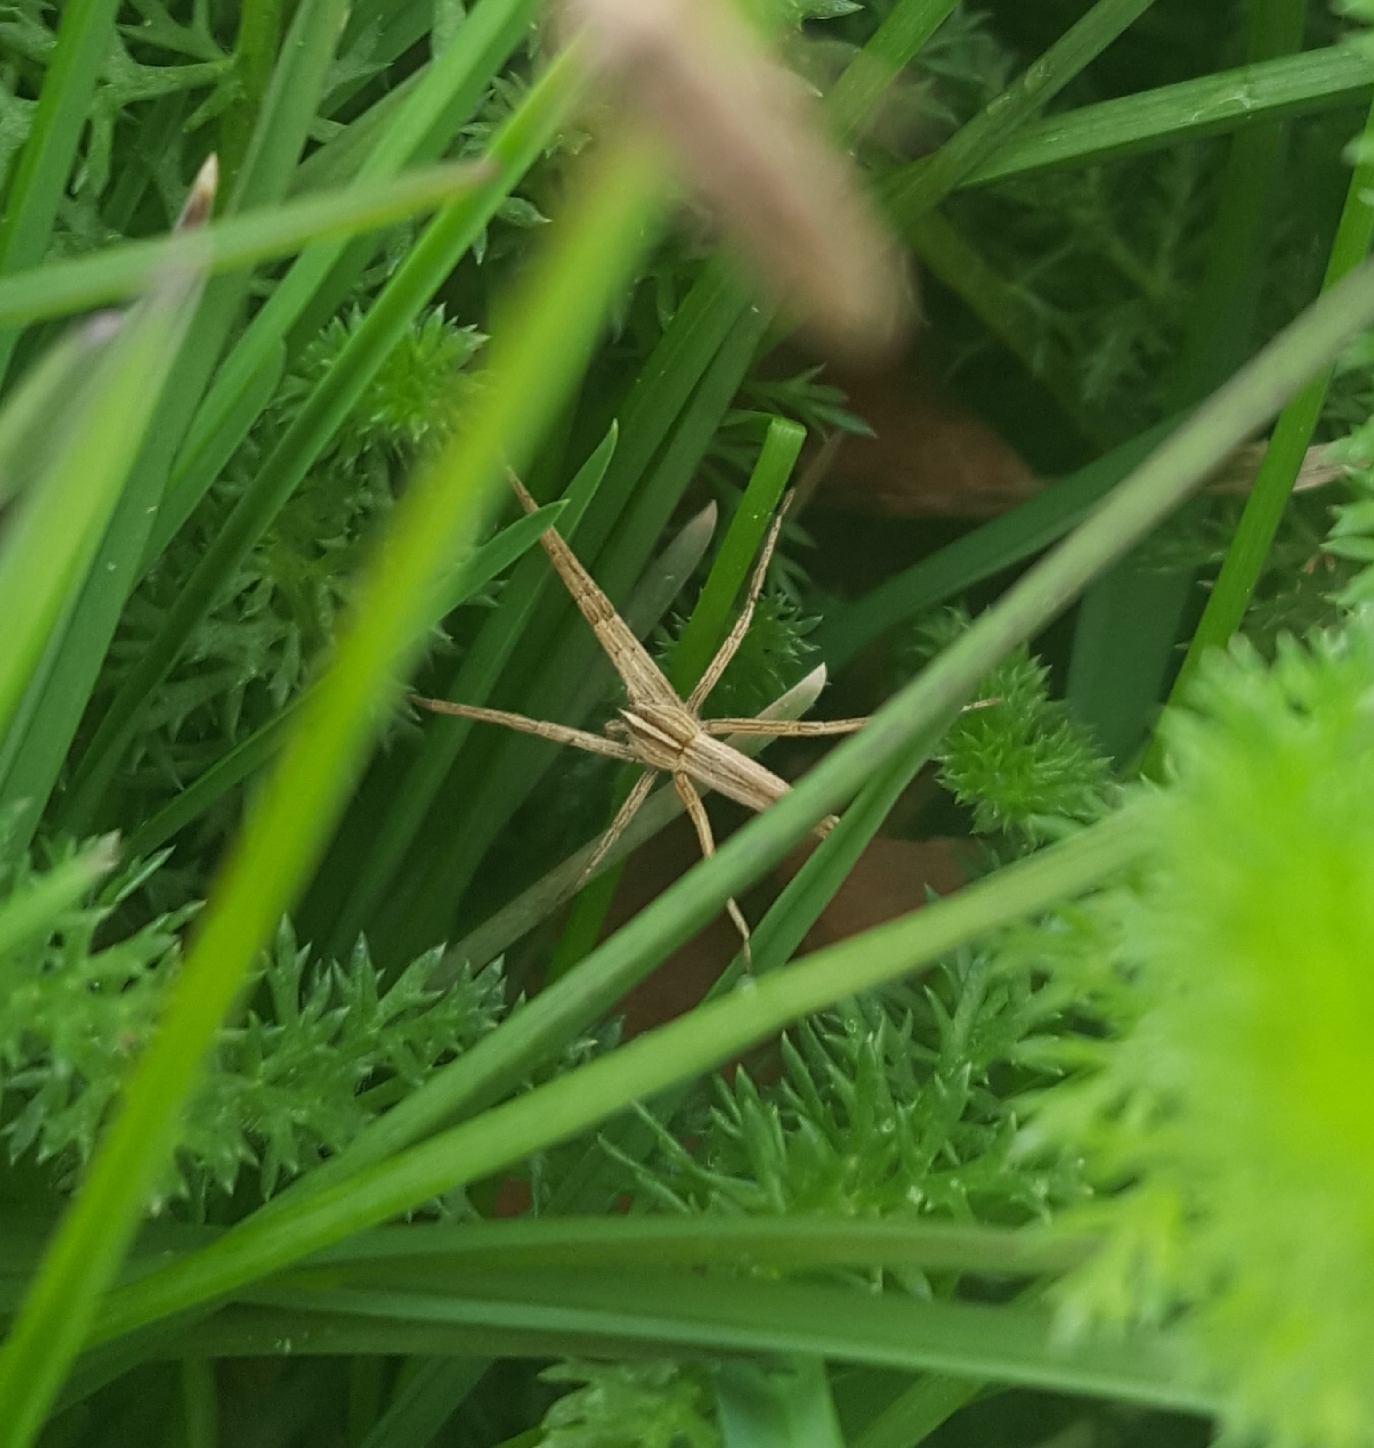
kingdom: Animalia
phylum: Arthropoda
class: Arachnida
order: Araneae
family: Pisauridae
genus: Pisaurina
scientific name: Pisaurina dubia
